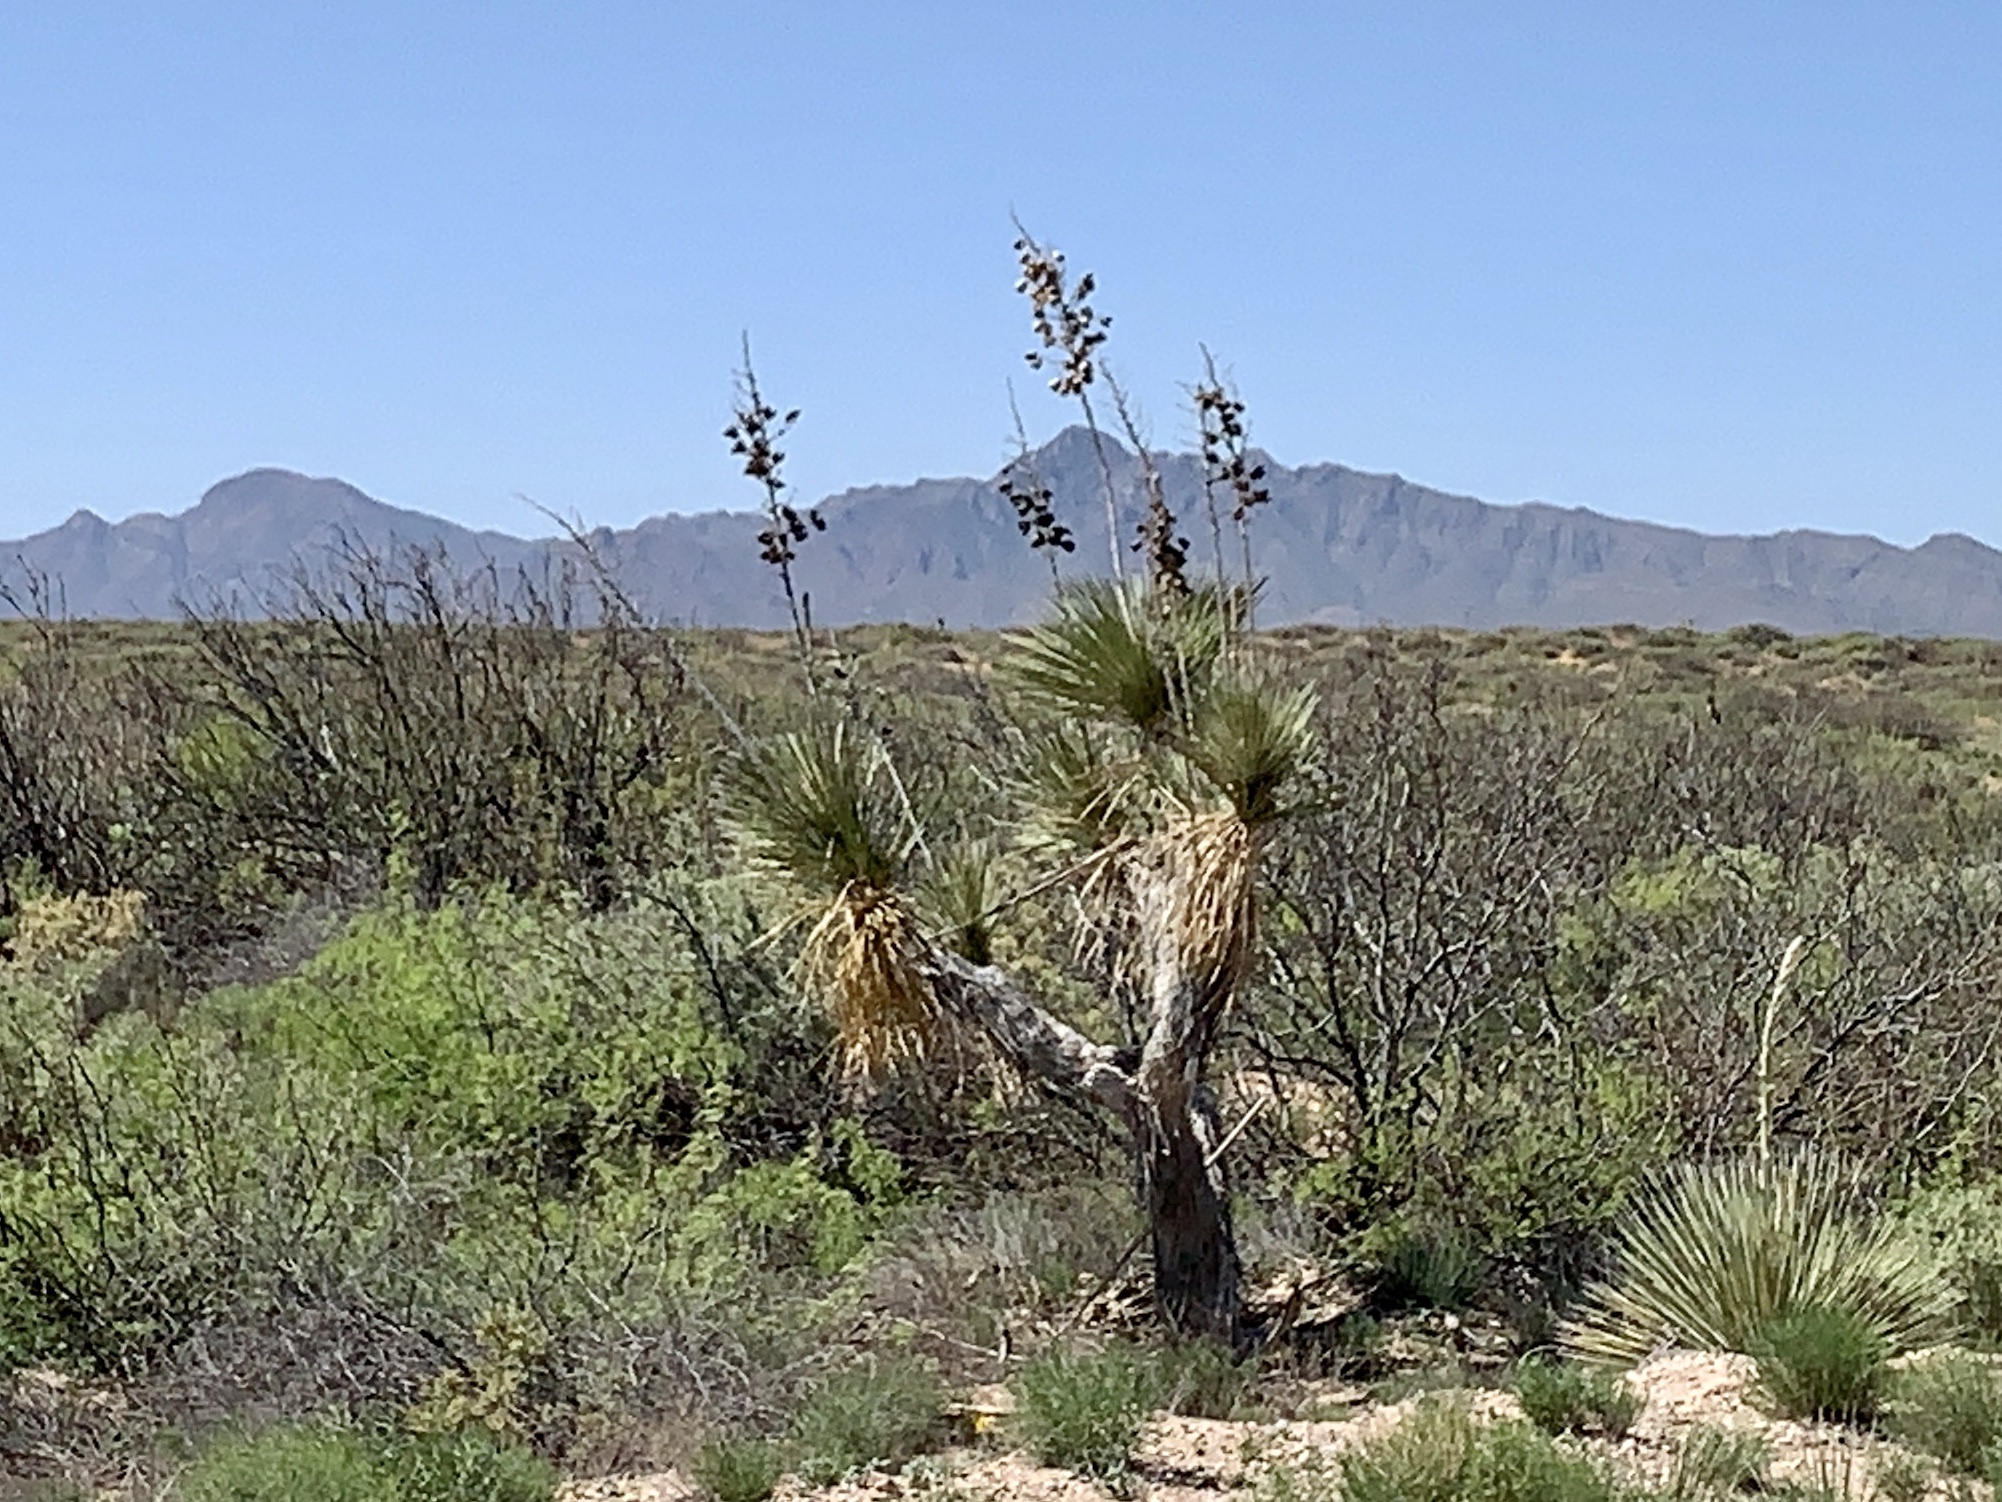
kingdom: Plantae
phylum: Tracheophyta
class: Liliopsida
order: Asparagales
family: Asparagaceae
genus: Yucca
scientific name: Yucca elata
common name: Palmella
